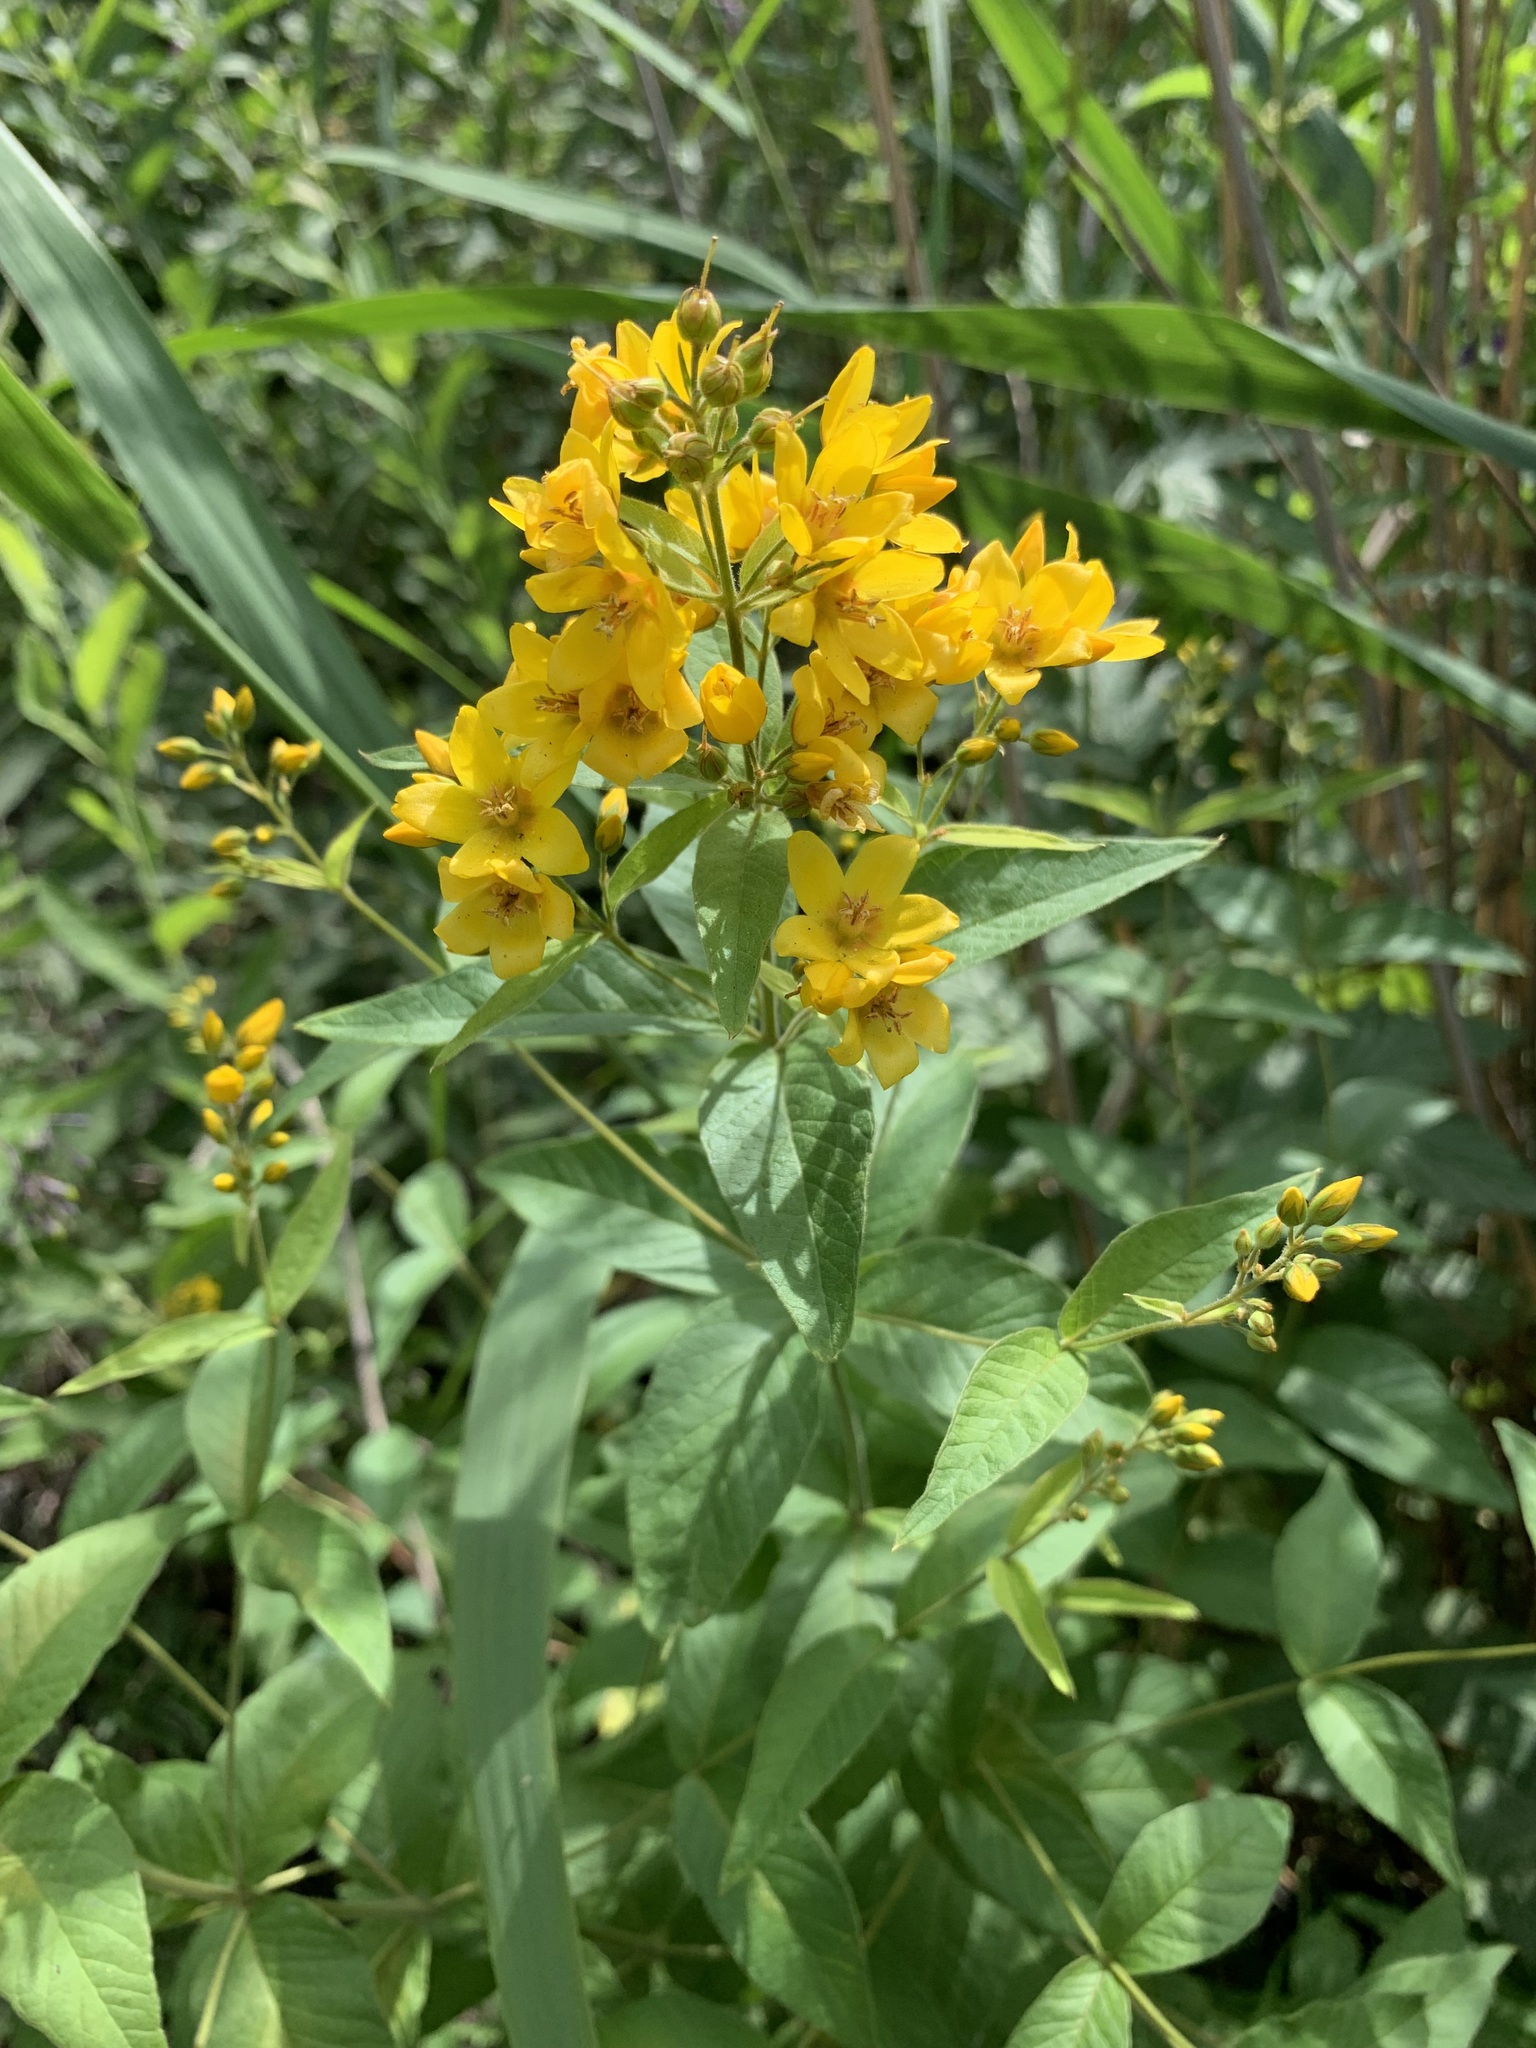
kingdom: Plantae
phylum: Tracheophyta
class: Magnoliopsida
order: Ericales
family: Primulaceae
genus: Lysimachia
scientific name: Lysimachia vulgaris
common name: Yellow loosestrife
